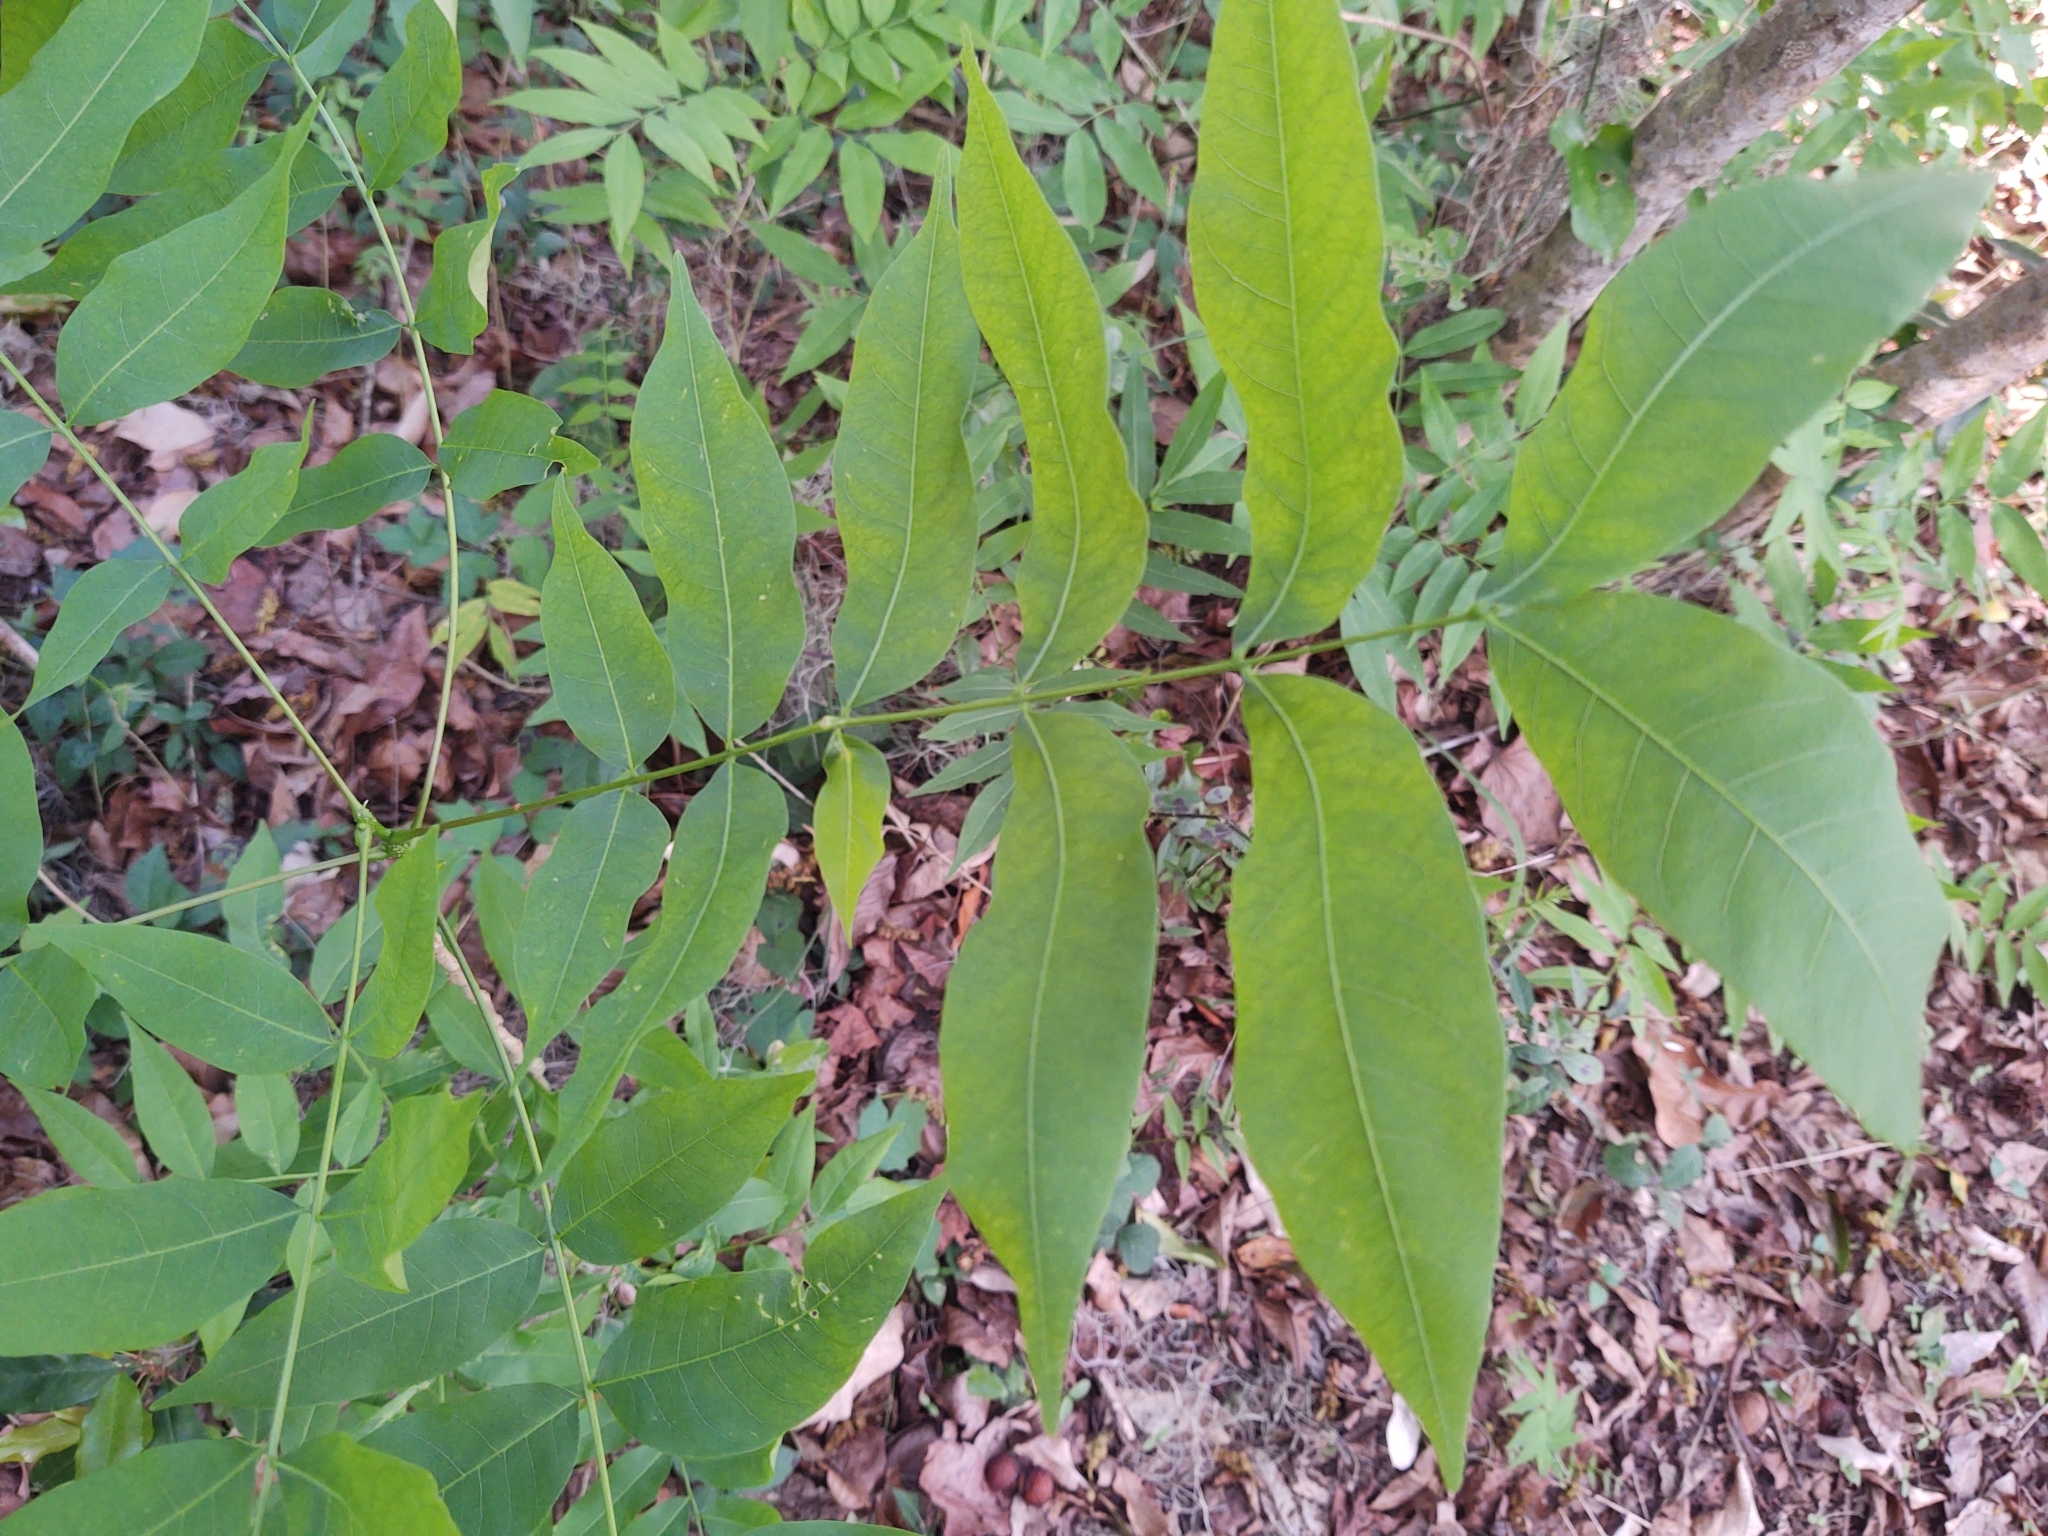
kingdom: Plantae
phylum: Tracheophyta
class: Magnoliopsida
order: Sapindales
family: Sapindaceae
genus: Sapindus
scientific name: Sapindus saponaria
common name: Wingleaf soapberry
